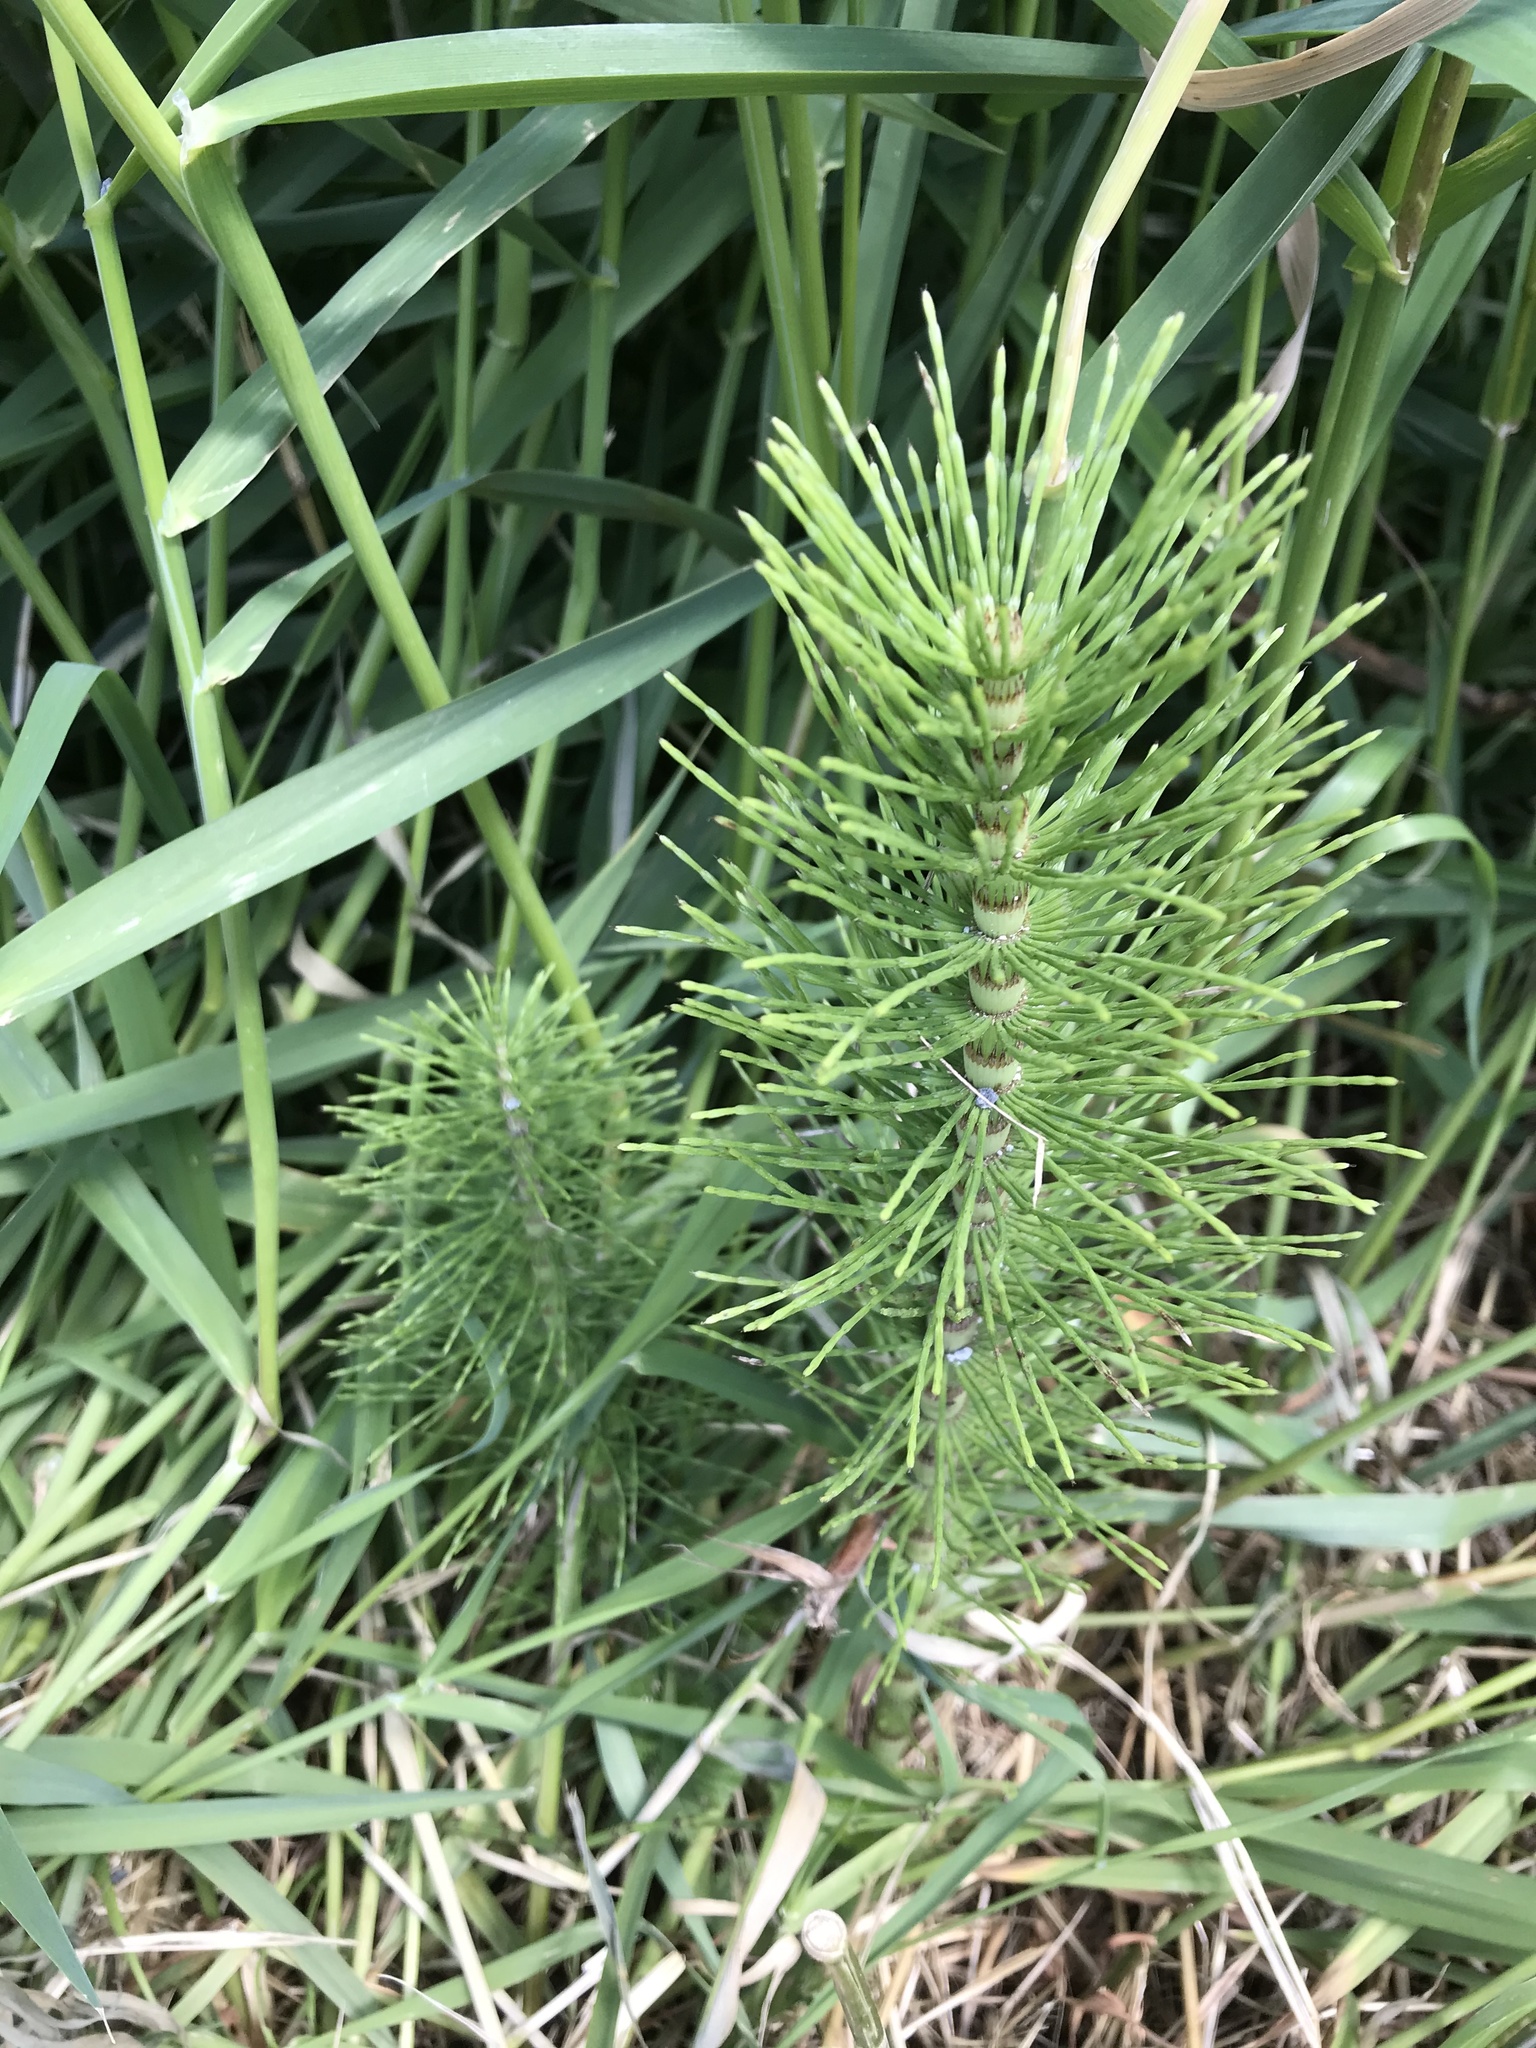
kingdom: Plantae
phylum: Tracheophyta
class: Polypodiopsida
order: Equisetales
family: Equisetaceae
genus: Equisetum
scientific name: Equisetum telmateia
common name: Great horsetail
